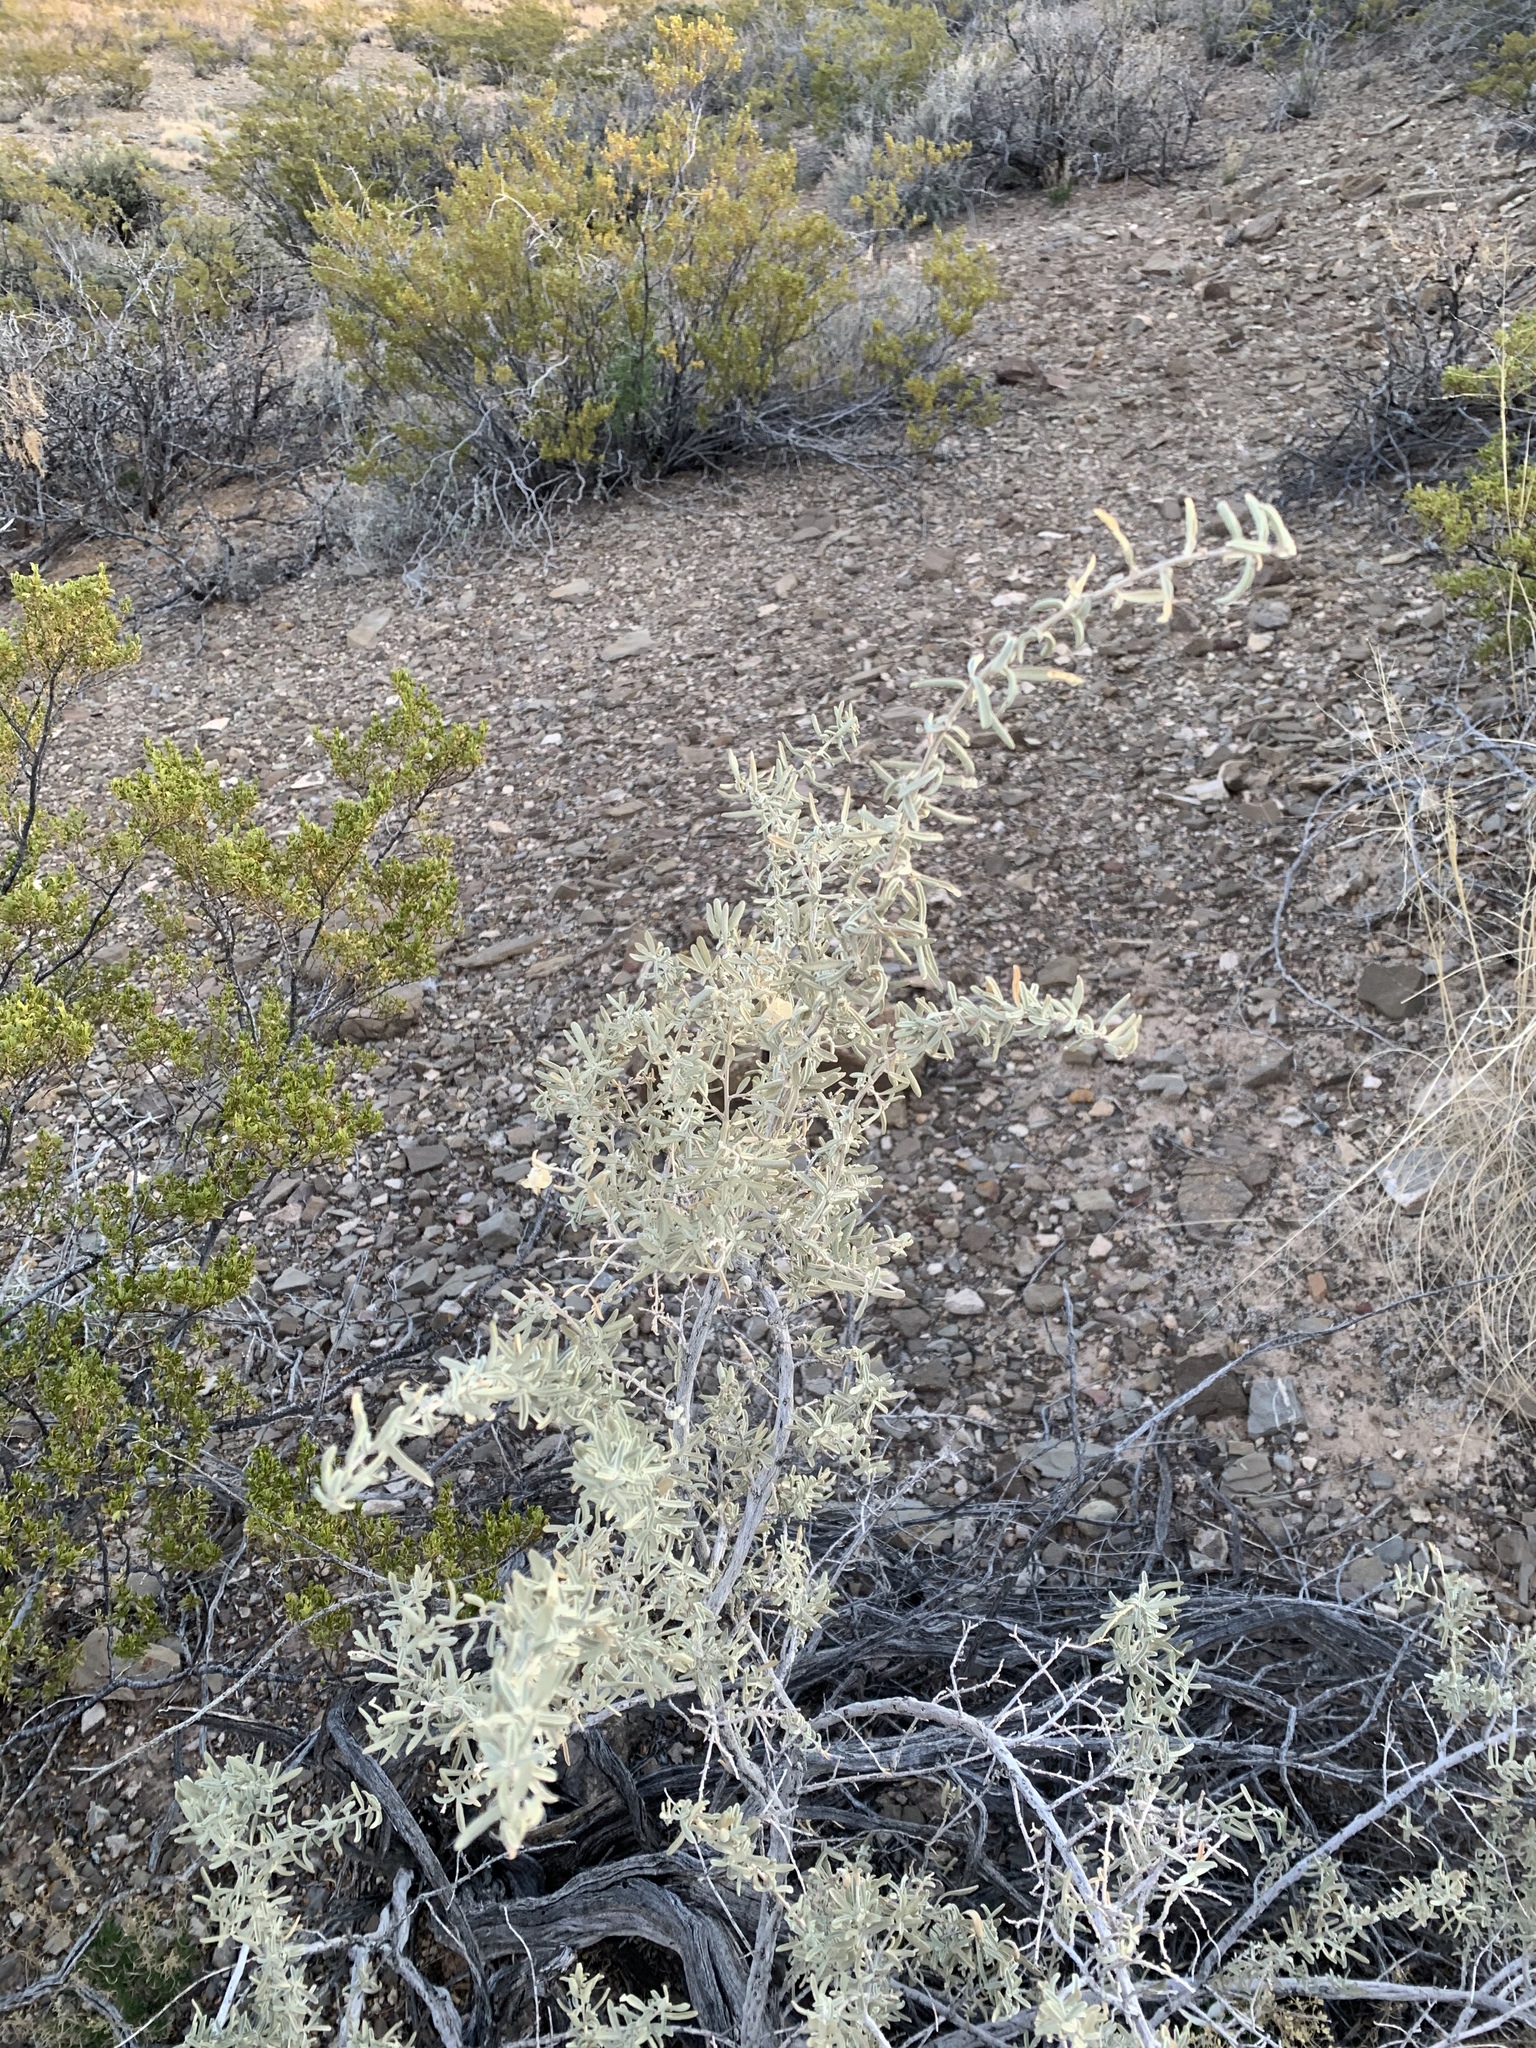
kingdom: Plantae
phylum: Tracheophyta
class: Magnoliopsida
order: Caryophyllales
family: Amaranthaceae
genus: Atriplex
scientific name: Atriplex canescens
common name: Four-wing saltbush
